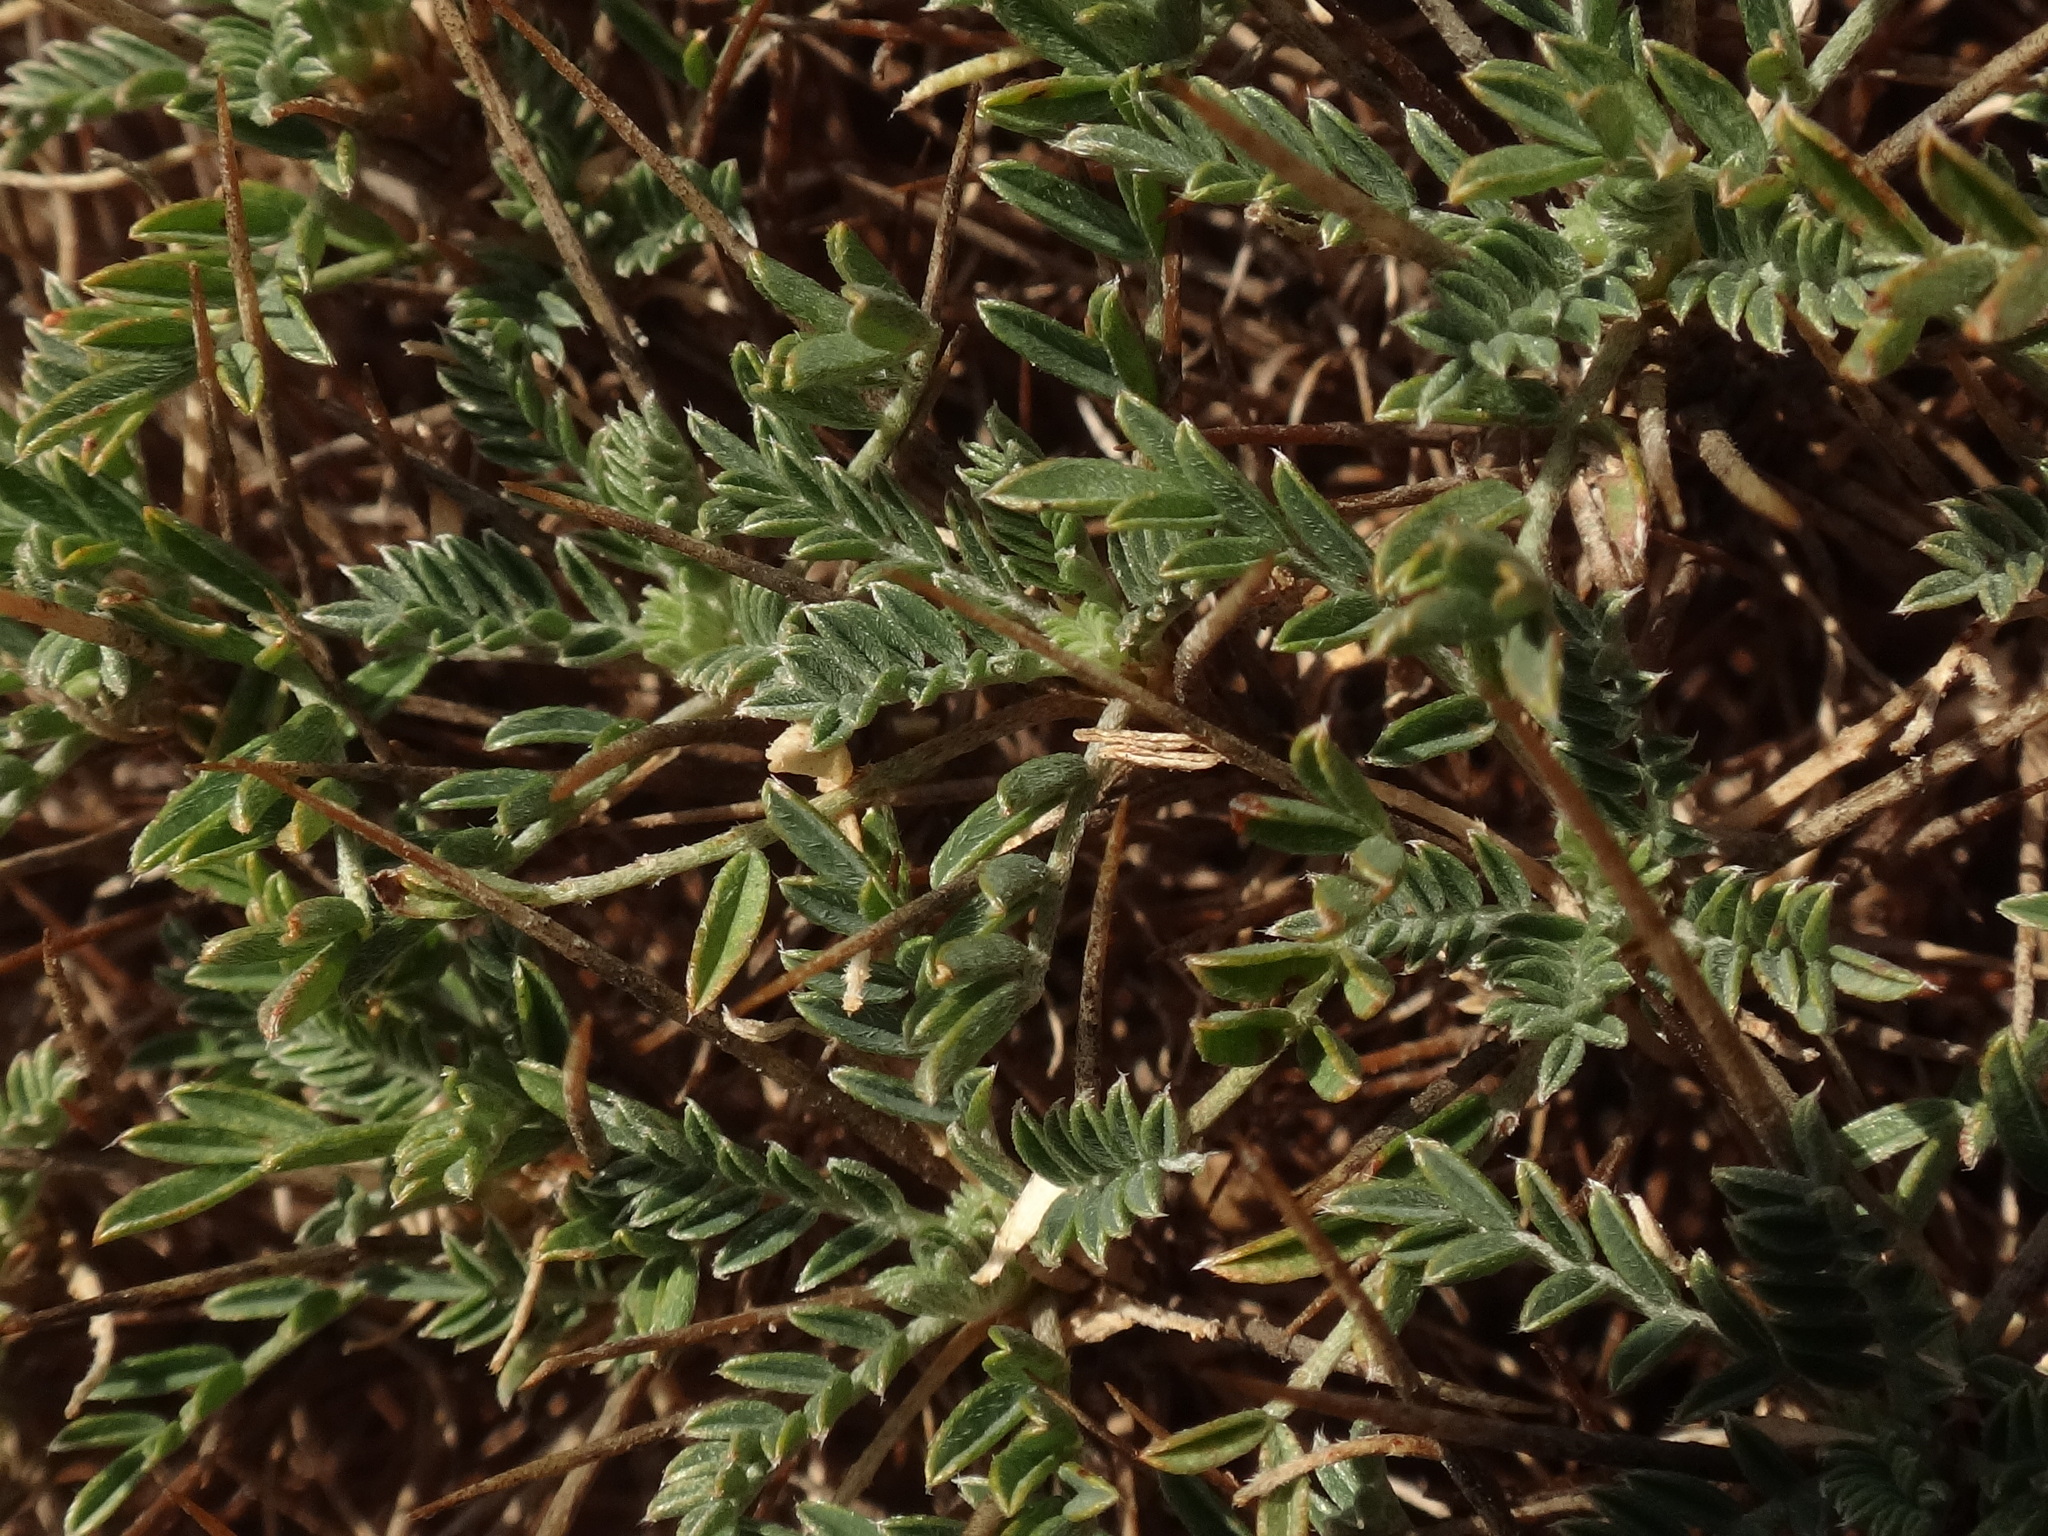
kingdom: Plantae
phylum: Tracheophyta
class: Magnoliopsida
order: Fabales
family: Fabaceae
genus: Astragalus
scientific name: Astragalus balearicus
